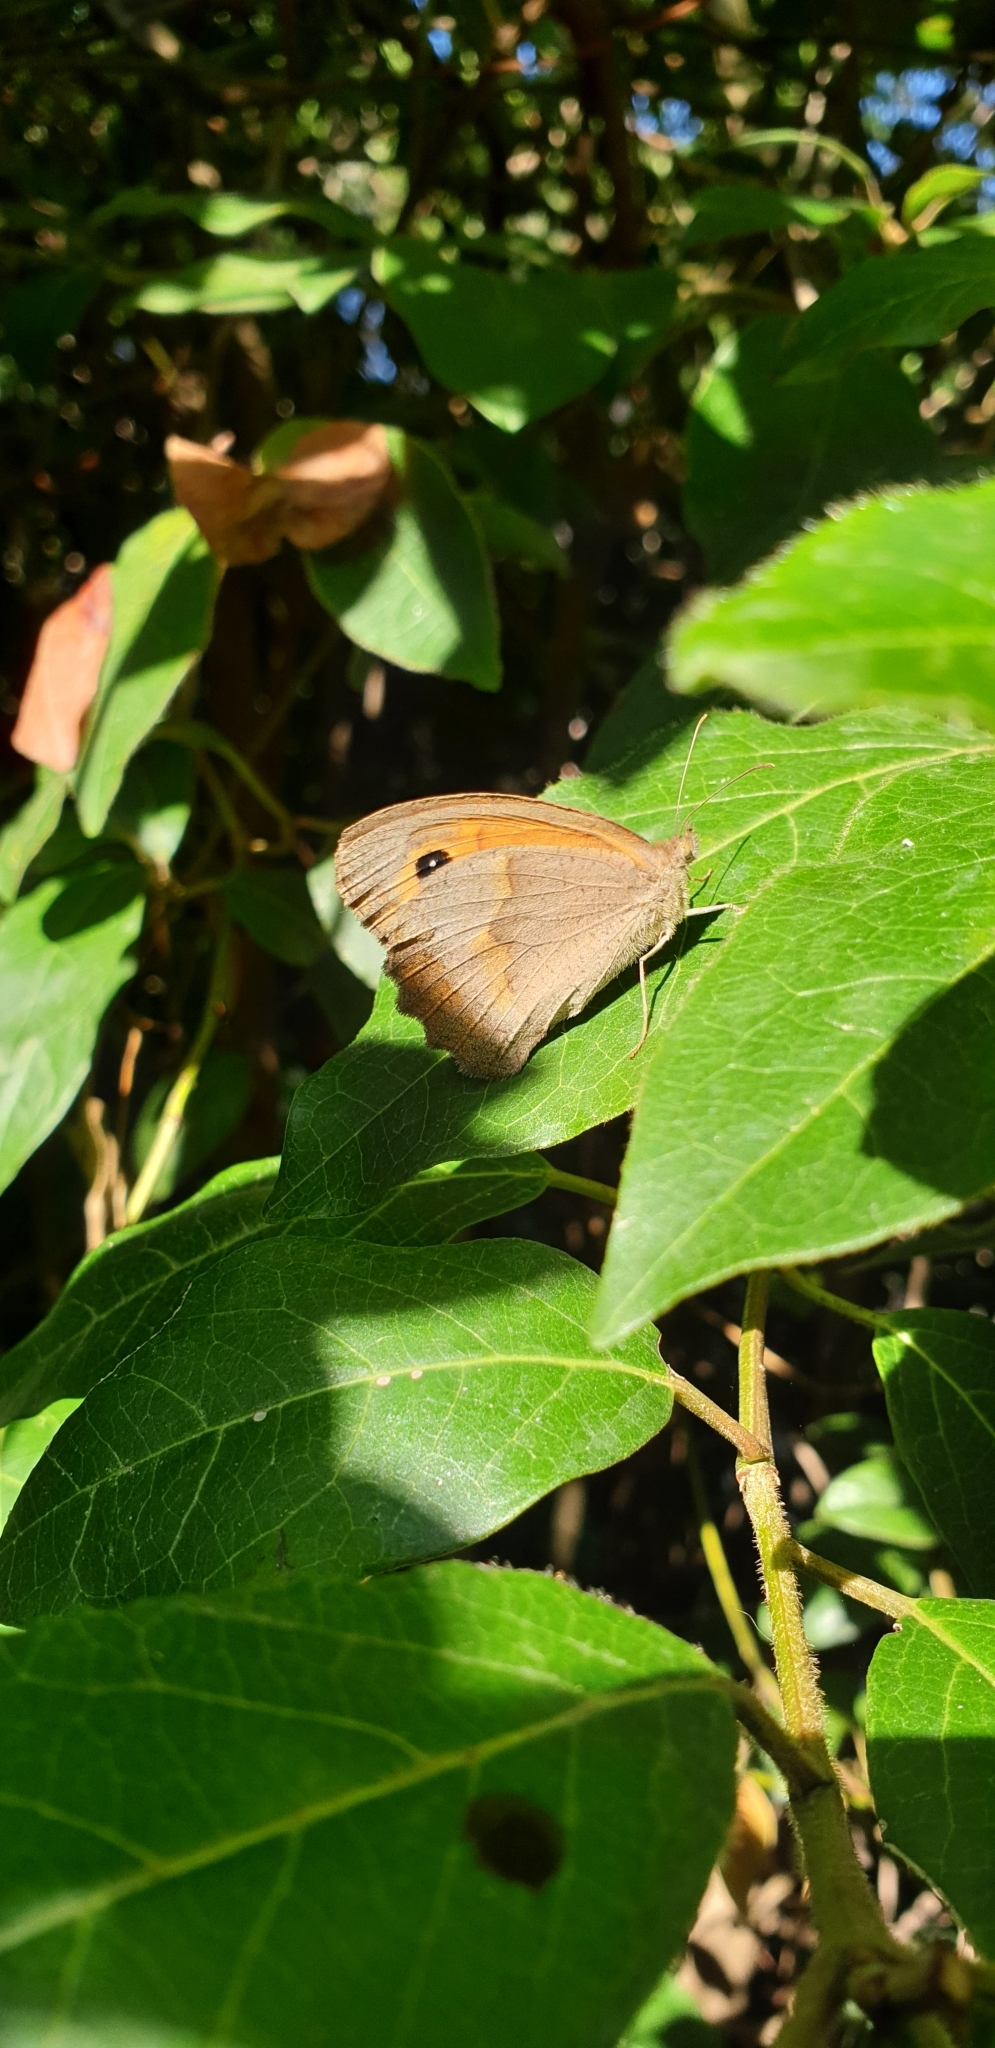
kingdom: Animalia
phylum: Arthropoda
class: Insecta
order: Lepidoptera
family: Nymphalidae
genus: Maniola
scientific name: Maniola jurtina
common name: Meadow brown
